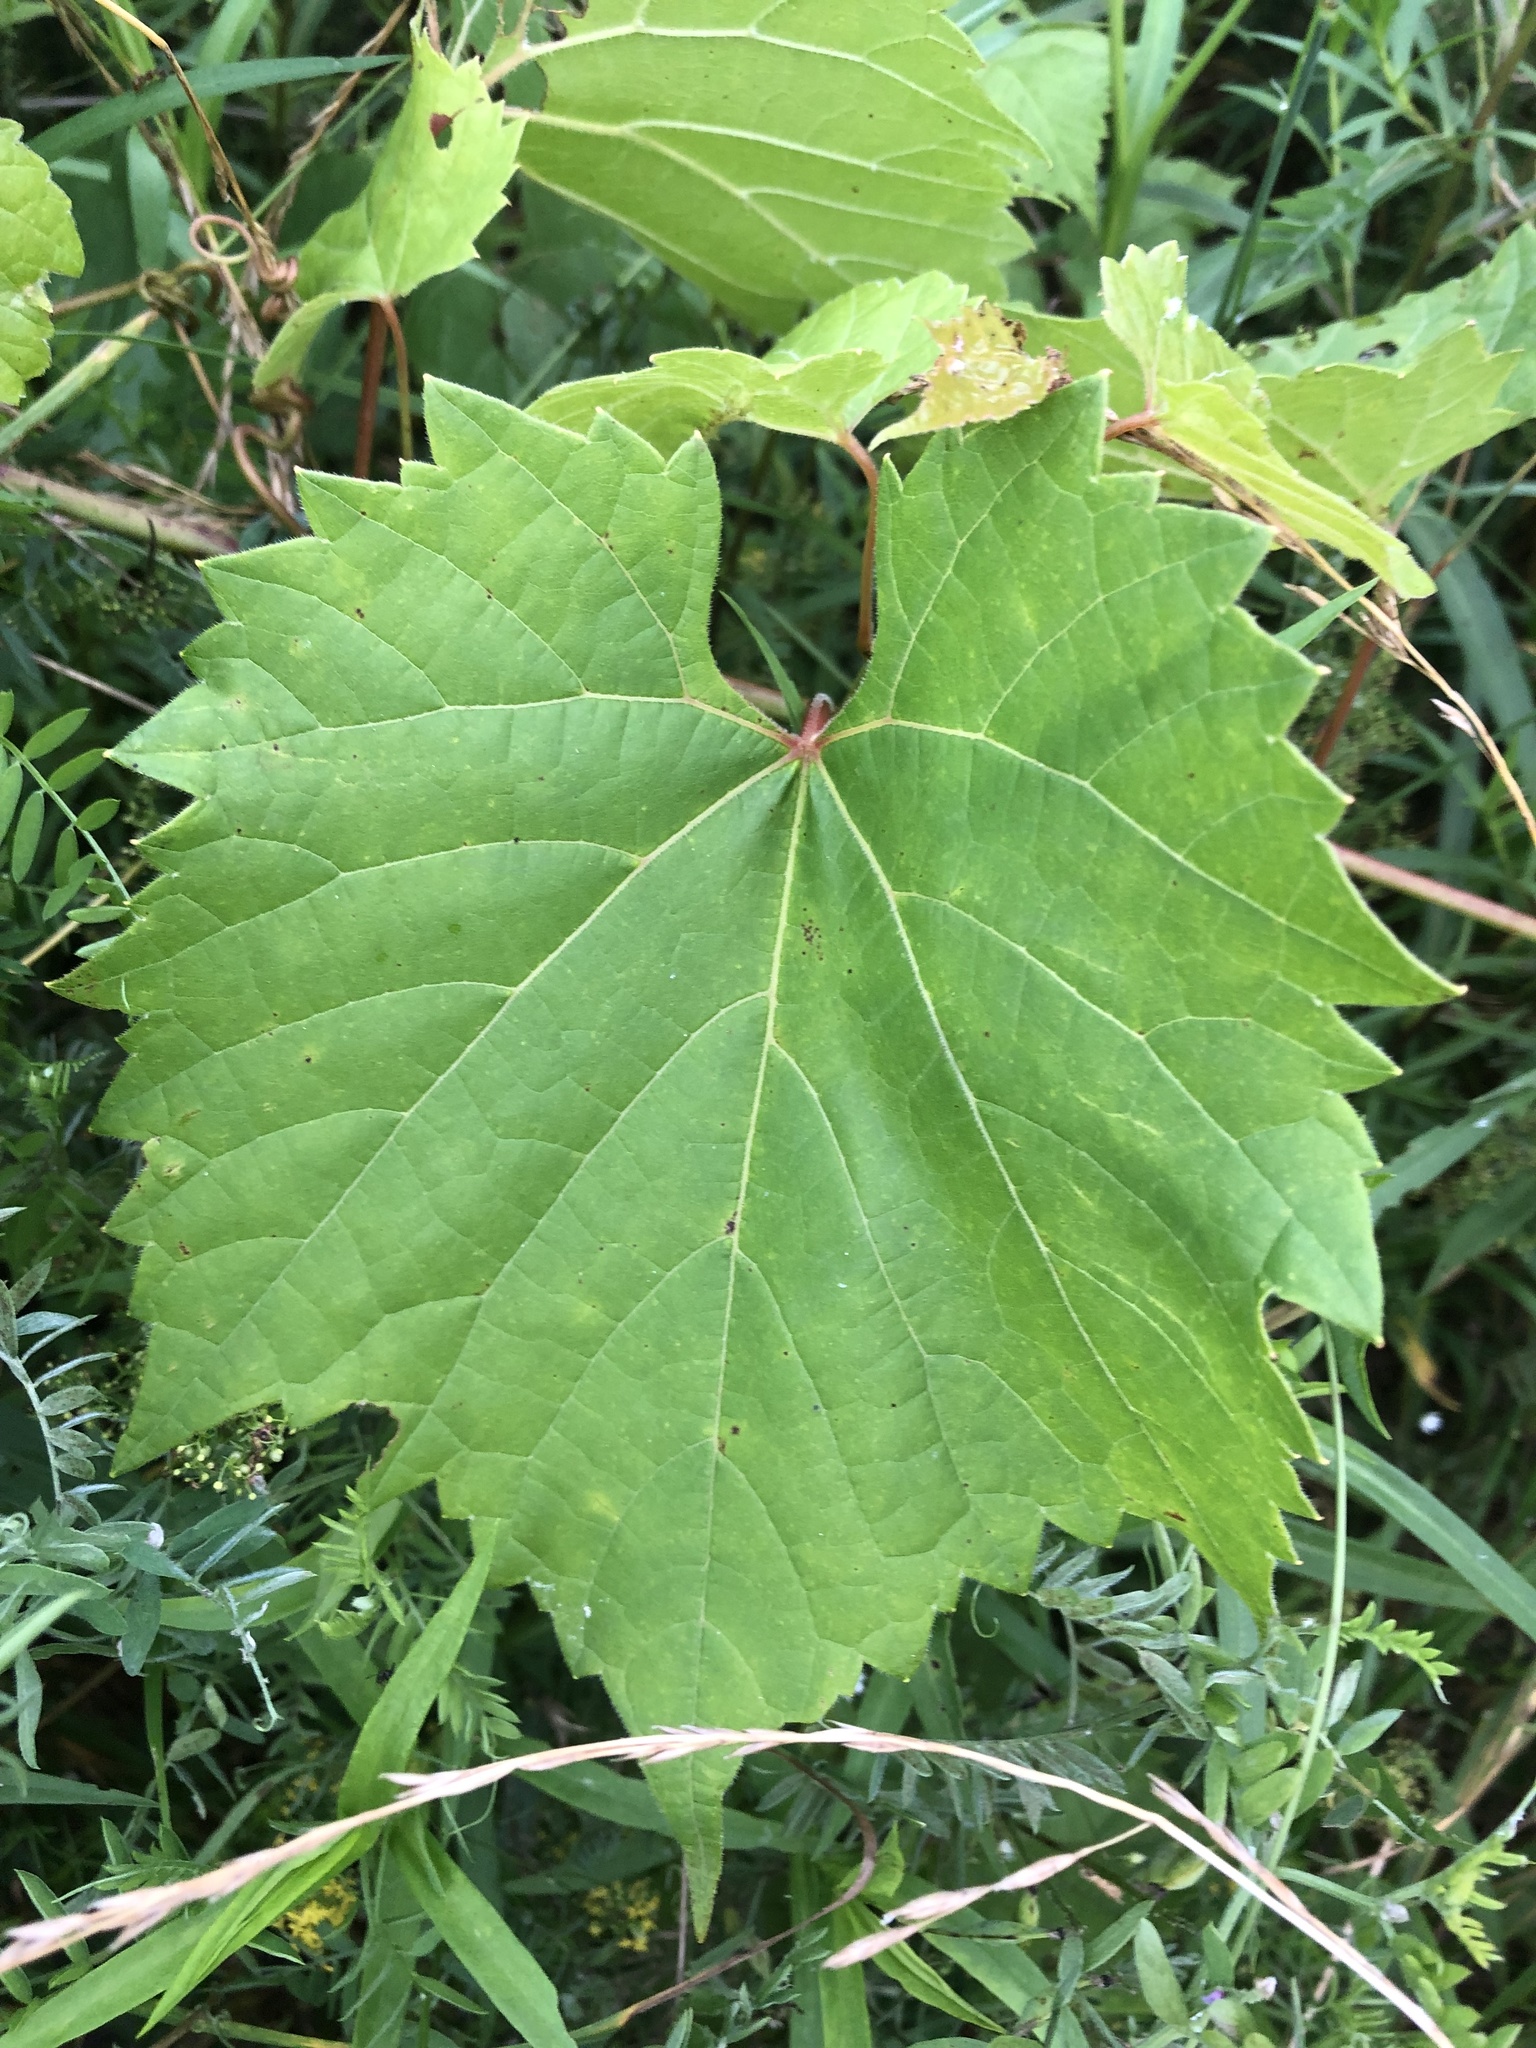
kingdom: Plantae
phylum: Tracheophyta
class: Magnoliopsida
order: Vitales
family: Vitaceae
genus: Vitis
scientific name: Vitis riparia
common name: Frost grape
